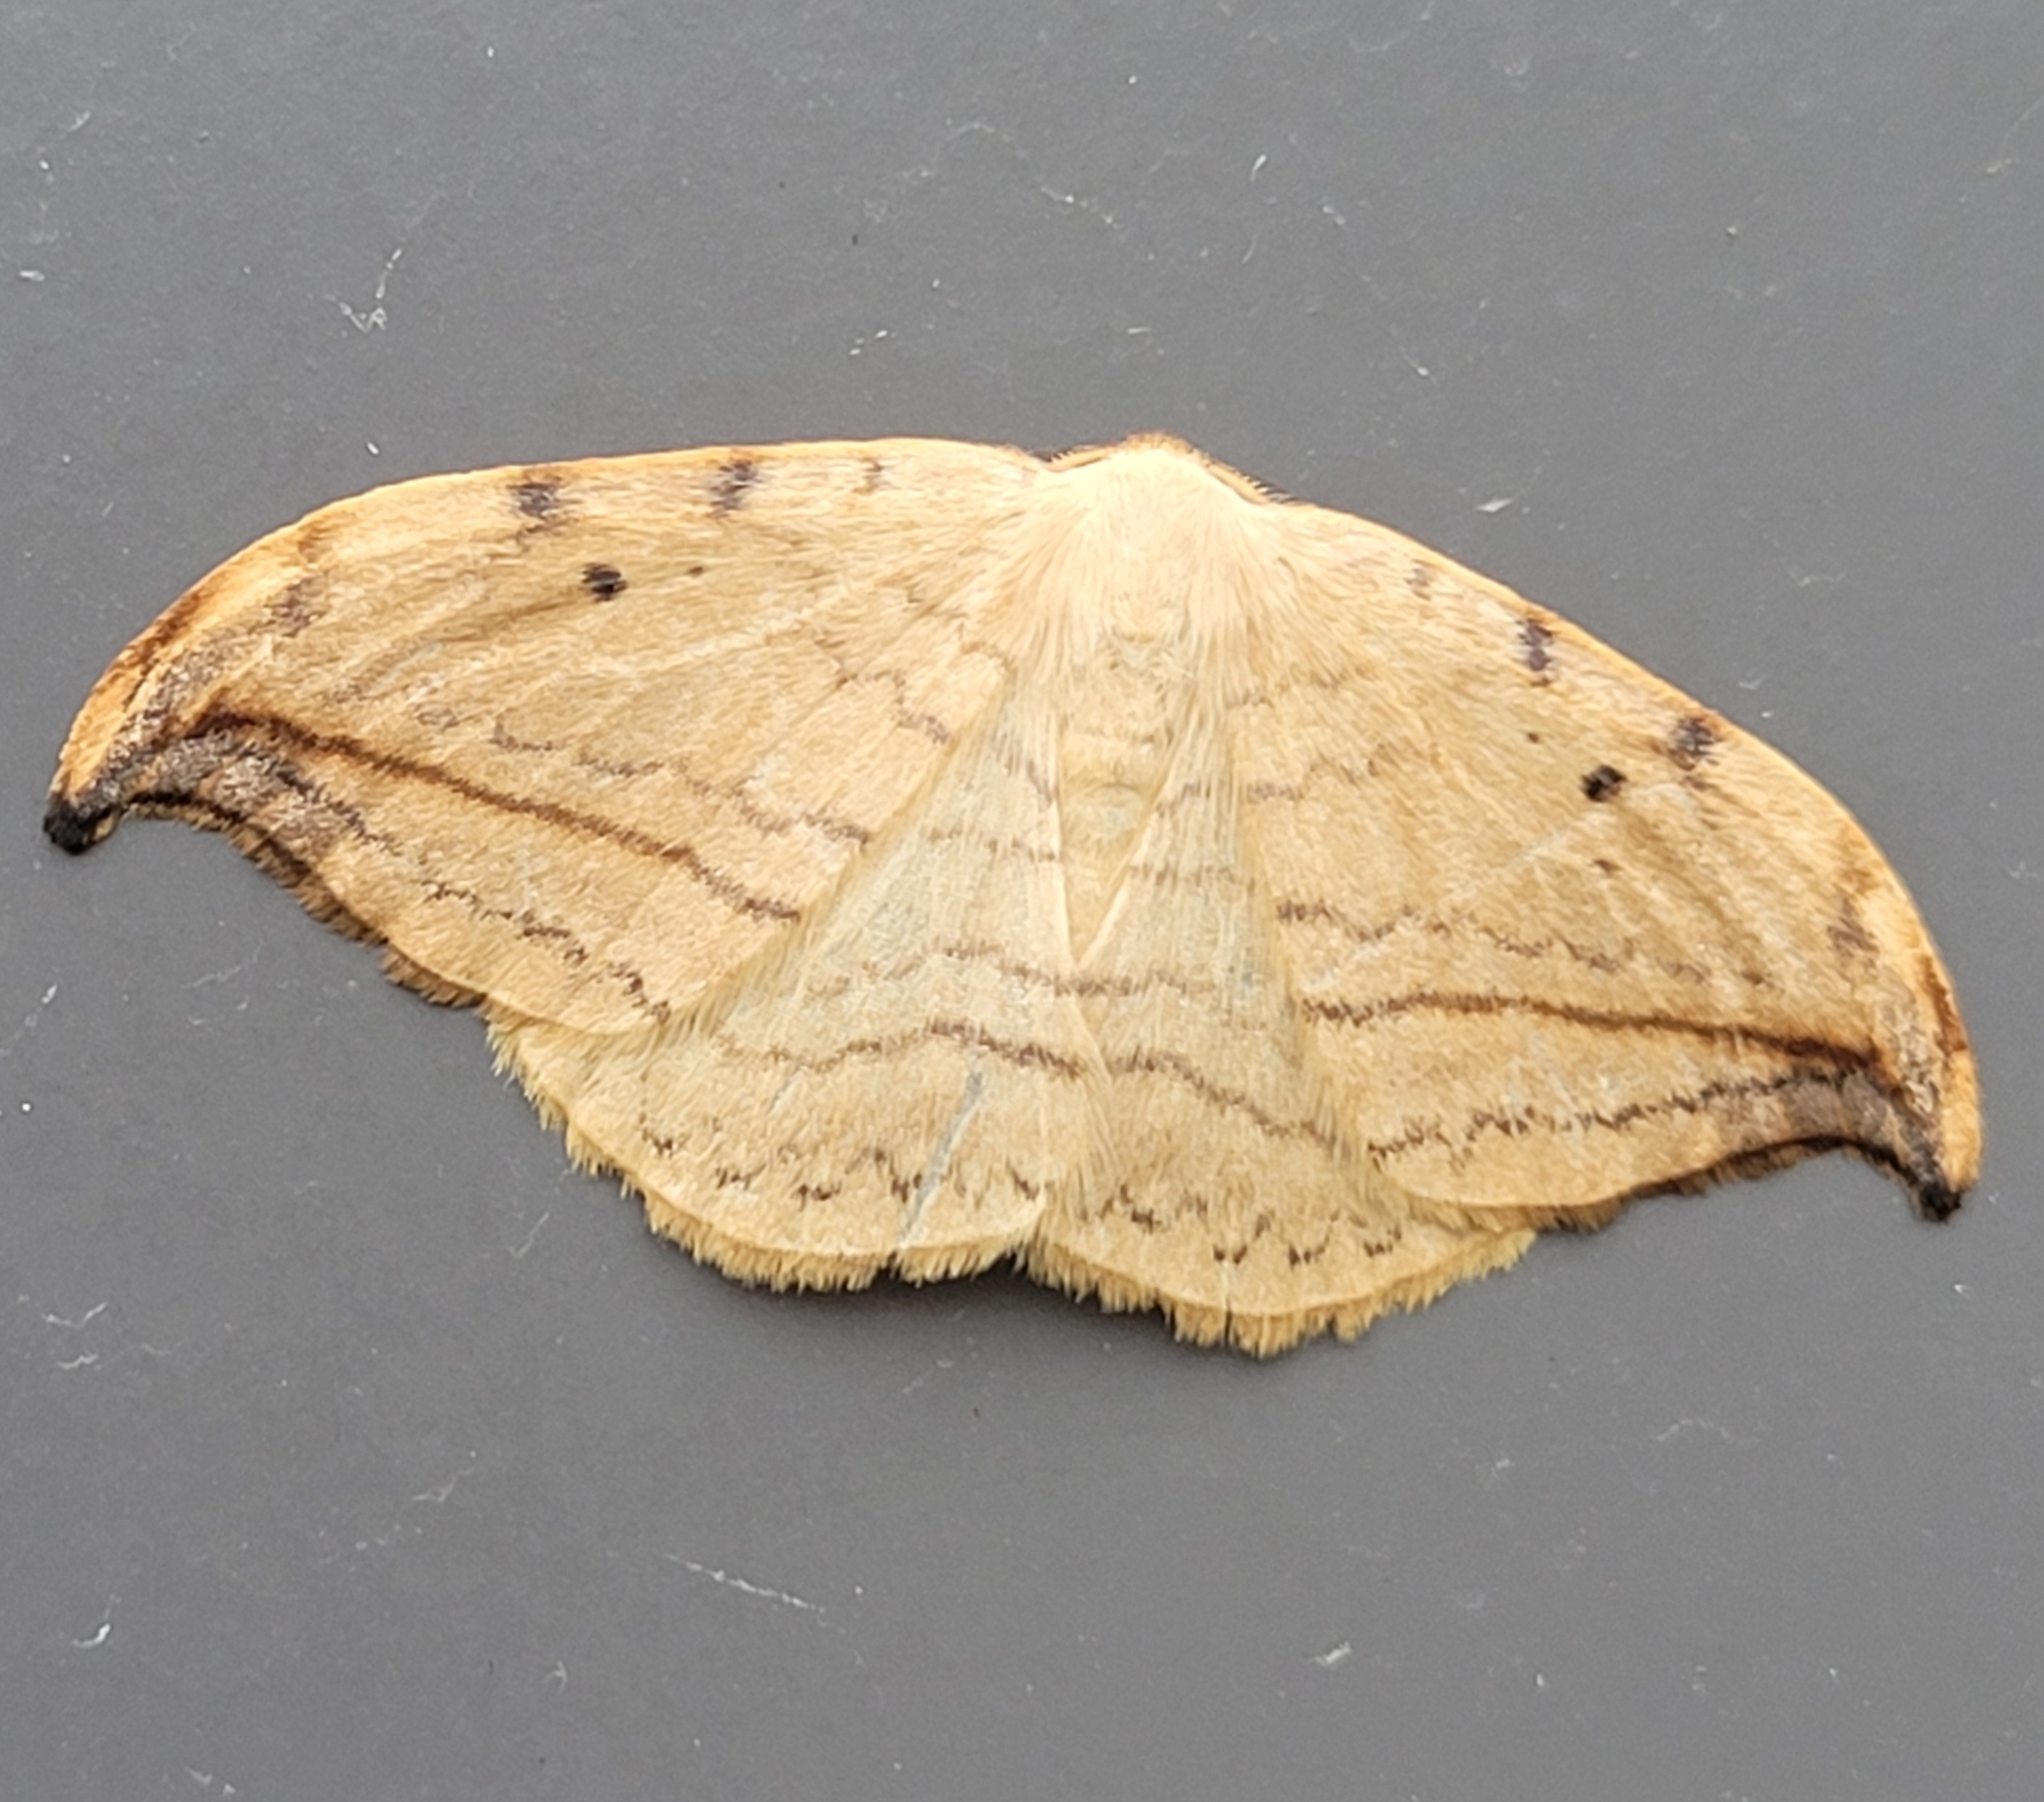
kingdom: Animalia
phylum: Arthropoda
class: Insecta
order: Lepidoptera
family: Drepanidae
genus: Drepana
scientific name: Drepana arcuata
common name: Arched hooktip moth
